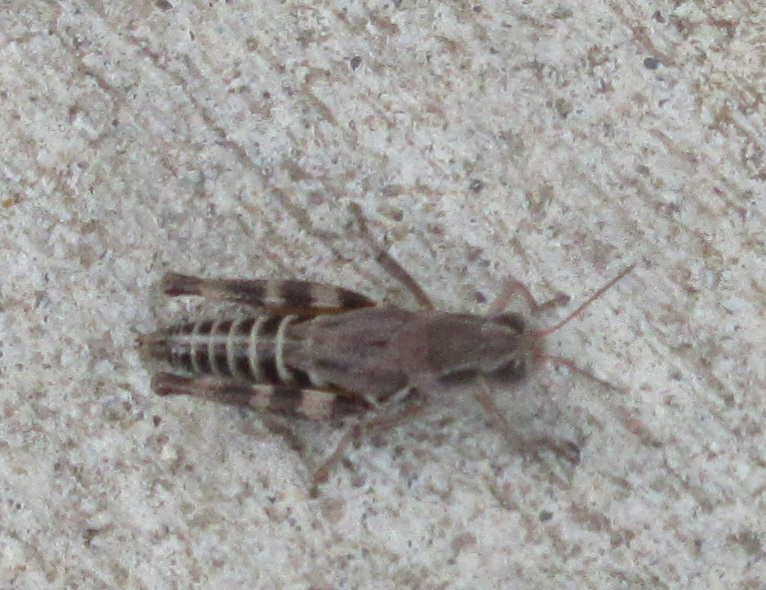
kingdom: Animalia
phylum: Arthropoda
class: Insecta
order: Orthoptera
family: Acrididae
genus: Melanoplus
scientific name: Melanoplus dawsoni
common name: Dawson grasshopper
